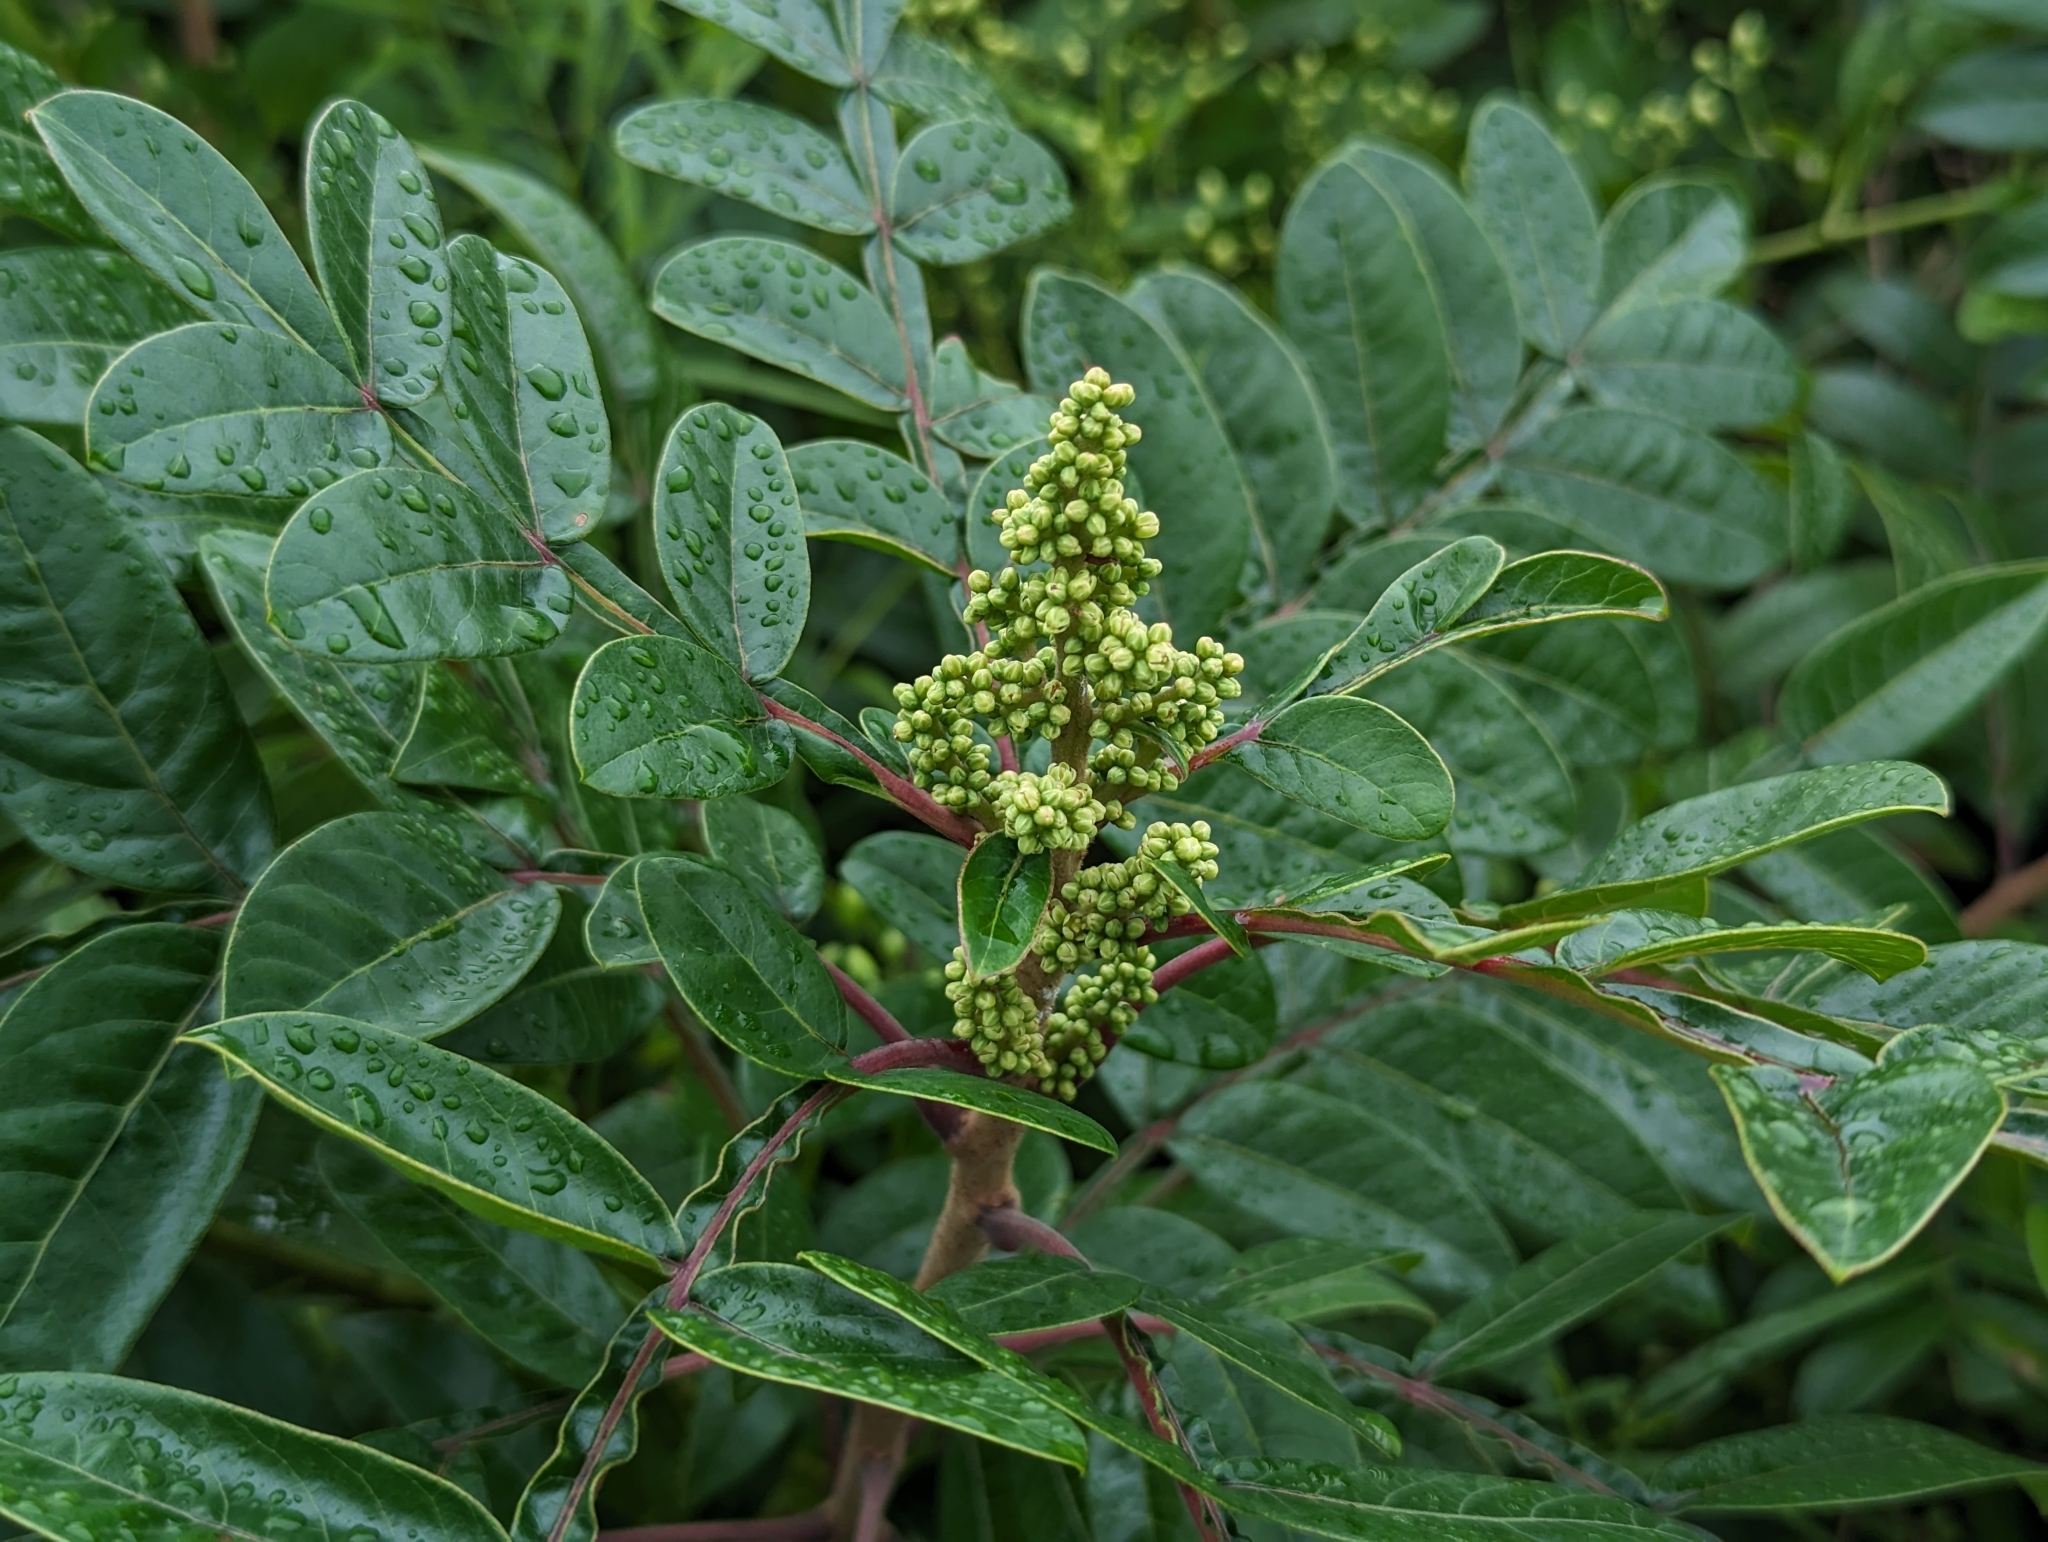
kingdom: Plantae
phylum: Tracheophyta
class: Magnoliopsida
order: Sapindales
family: Anacardiaceae
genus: Rhus
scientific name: Rhus copallina
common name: Shining sumac
